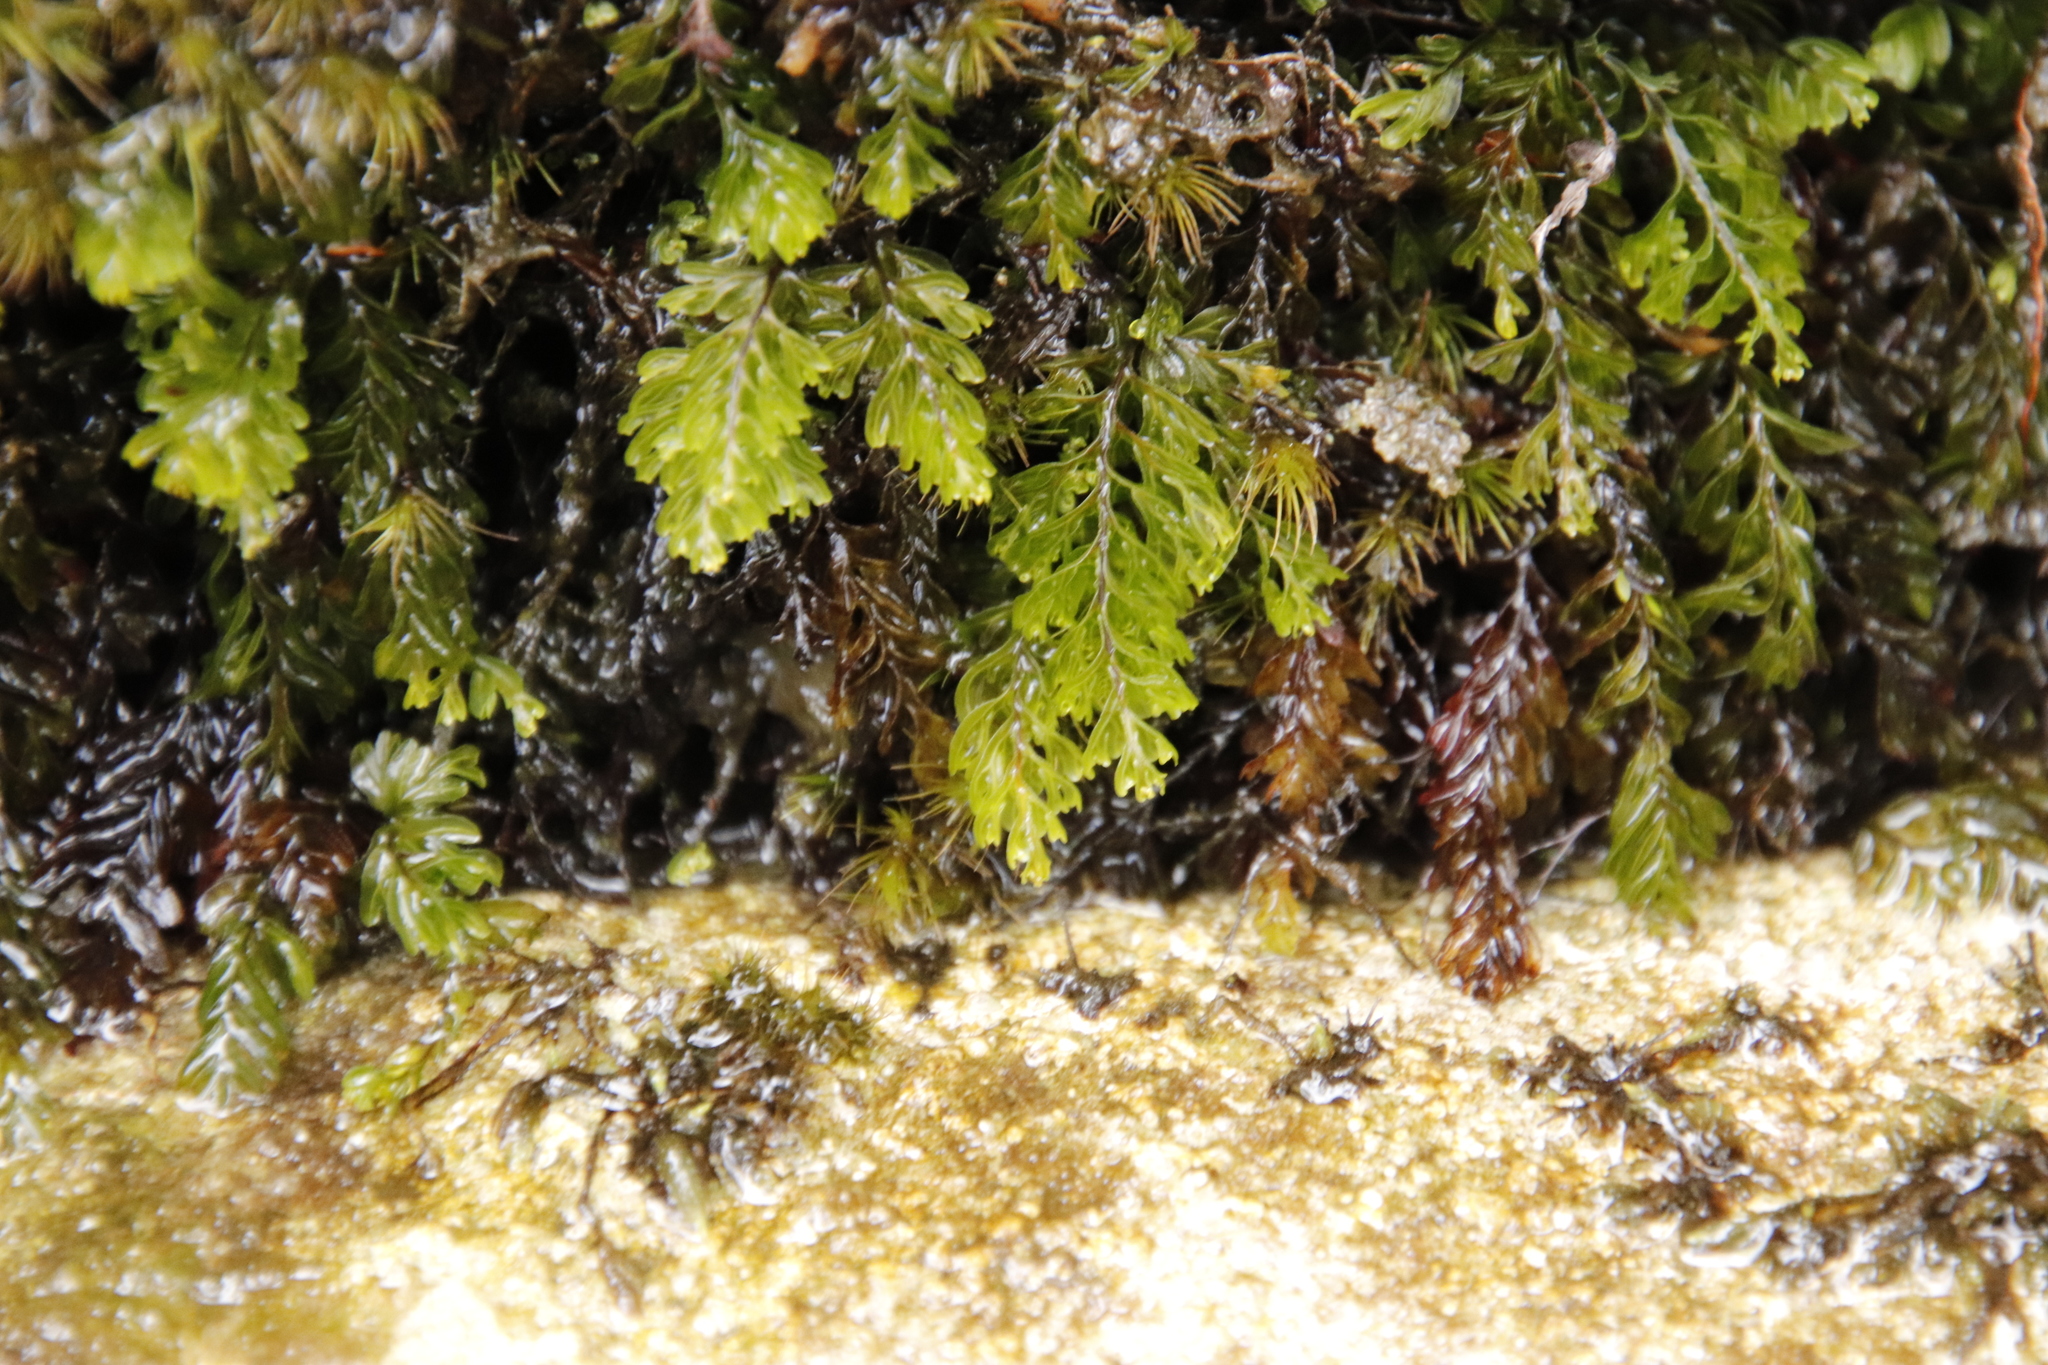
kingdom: Plantae
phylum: Tracheophyta
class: Polypodiopsida
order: Hymenophyllales
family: Hymenophyllaceae
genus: Hymenophyllum
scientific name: Hymenophyllum capense
